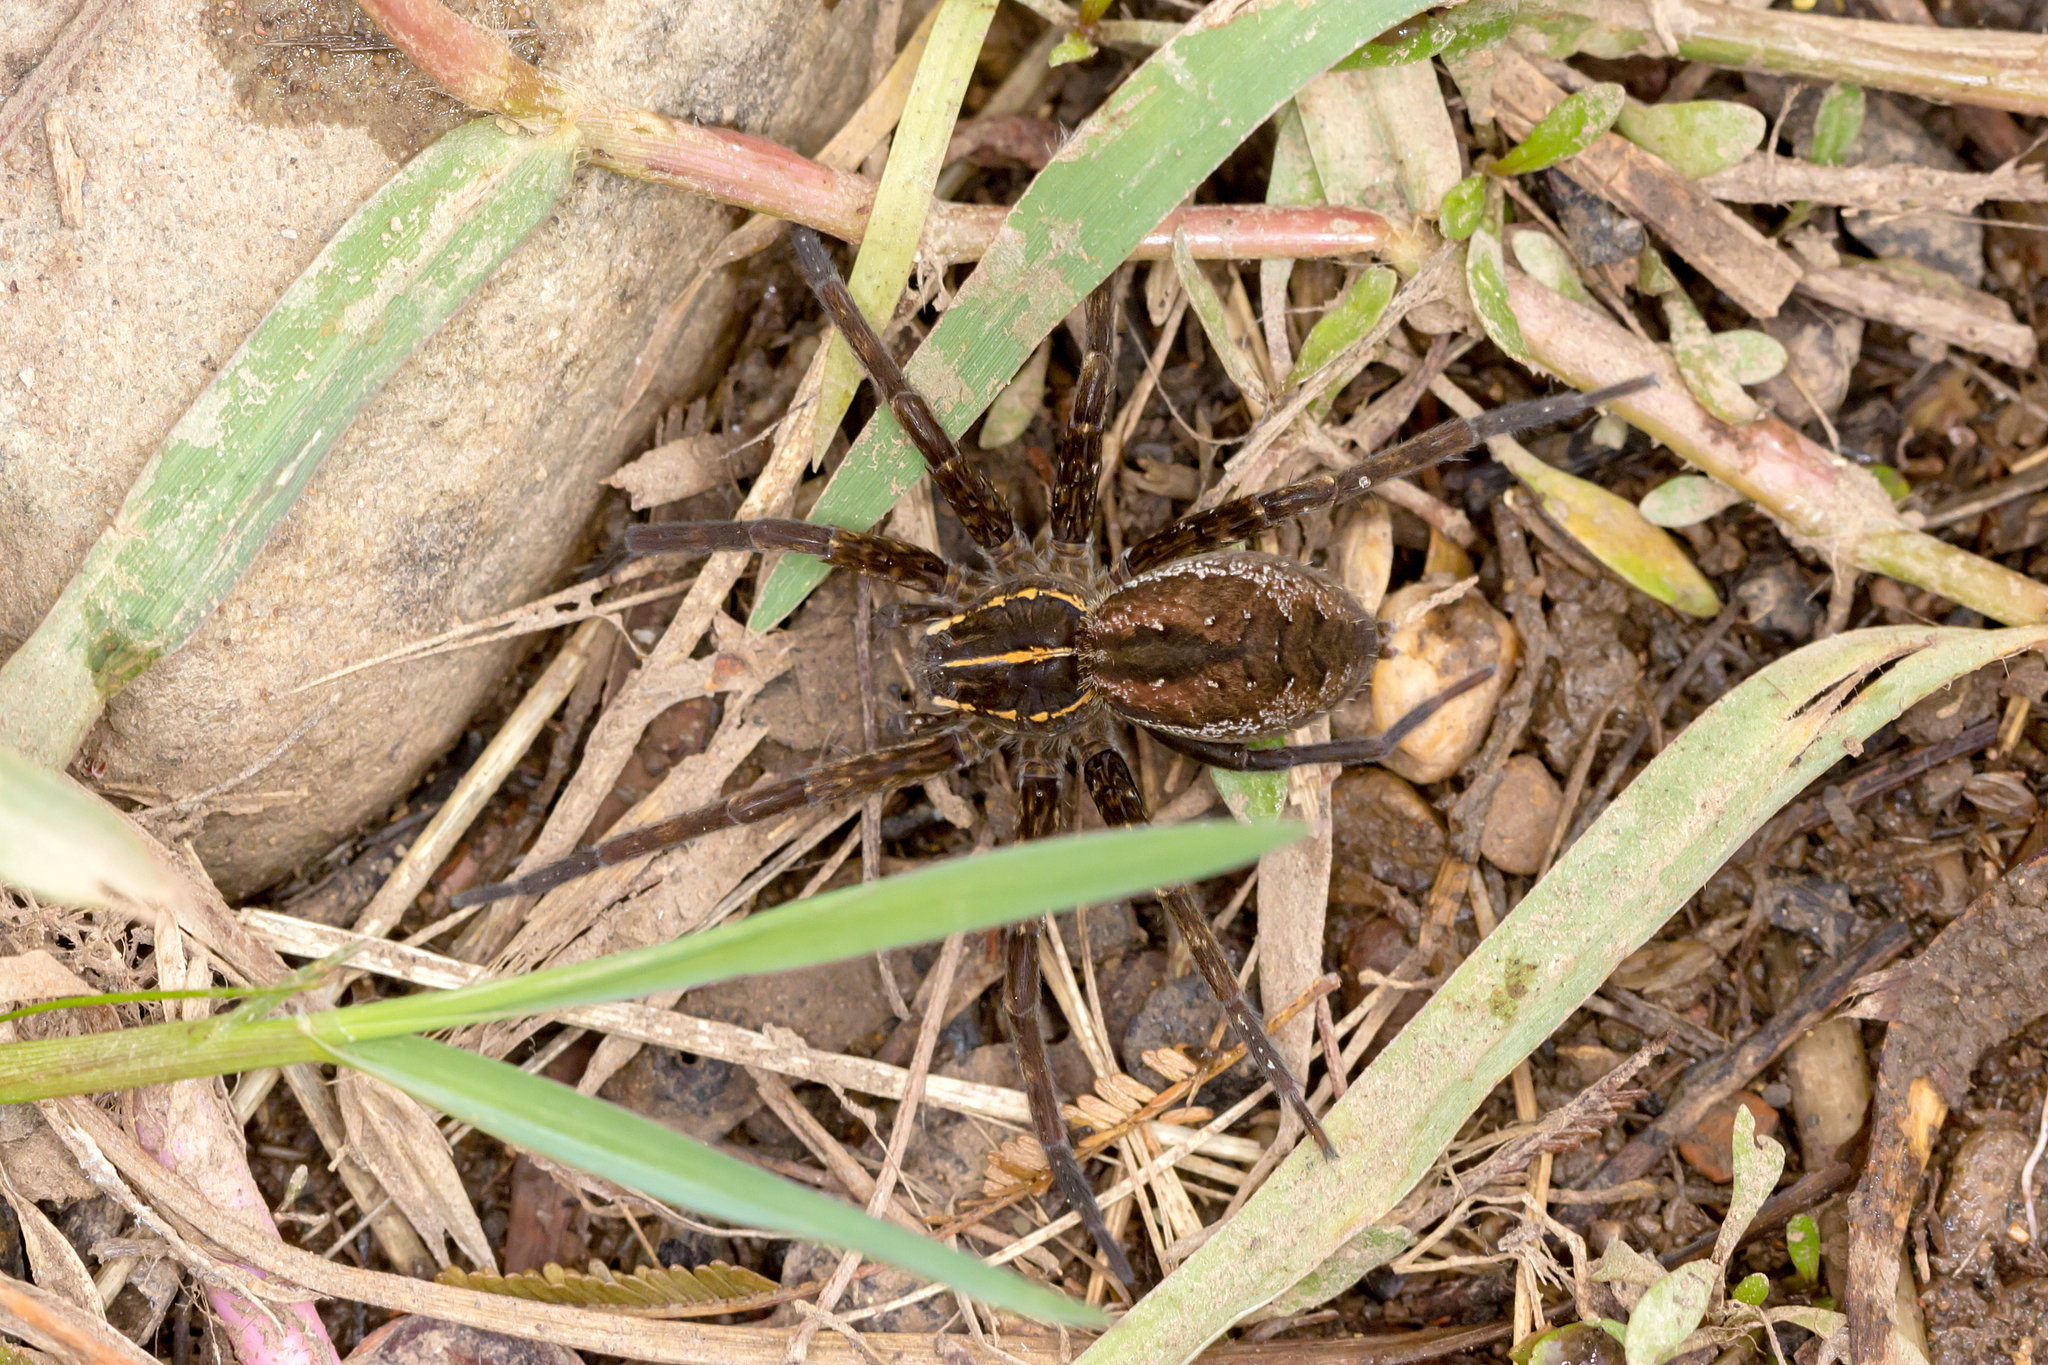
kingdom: Animalia
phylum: Arthropoda
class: Arachnida
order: Araneae
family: Pisauridae
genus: Dolomedes
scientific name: Dolomedes instabilis
